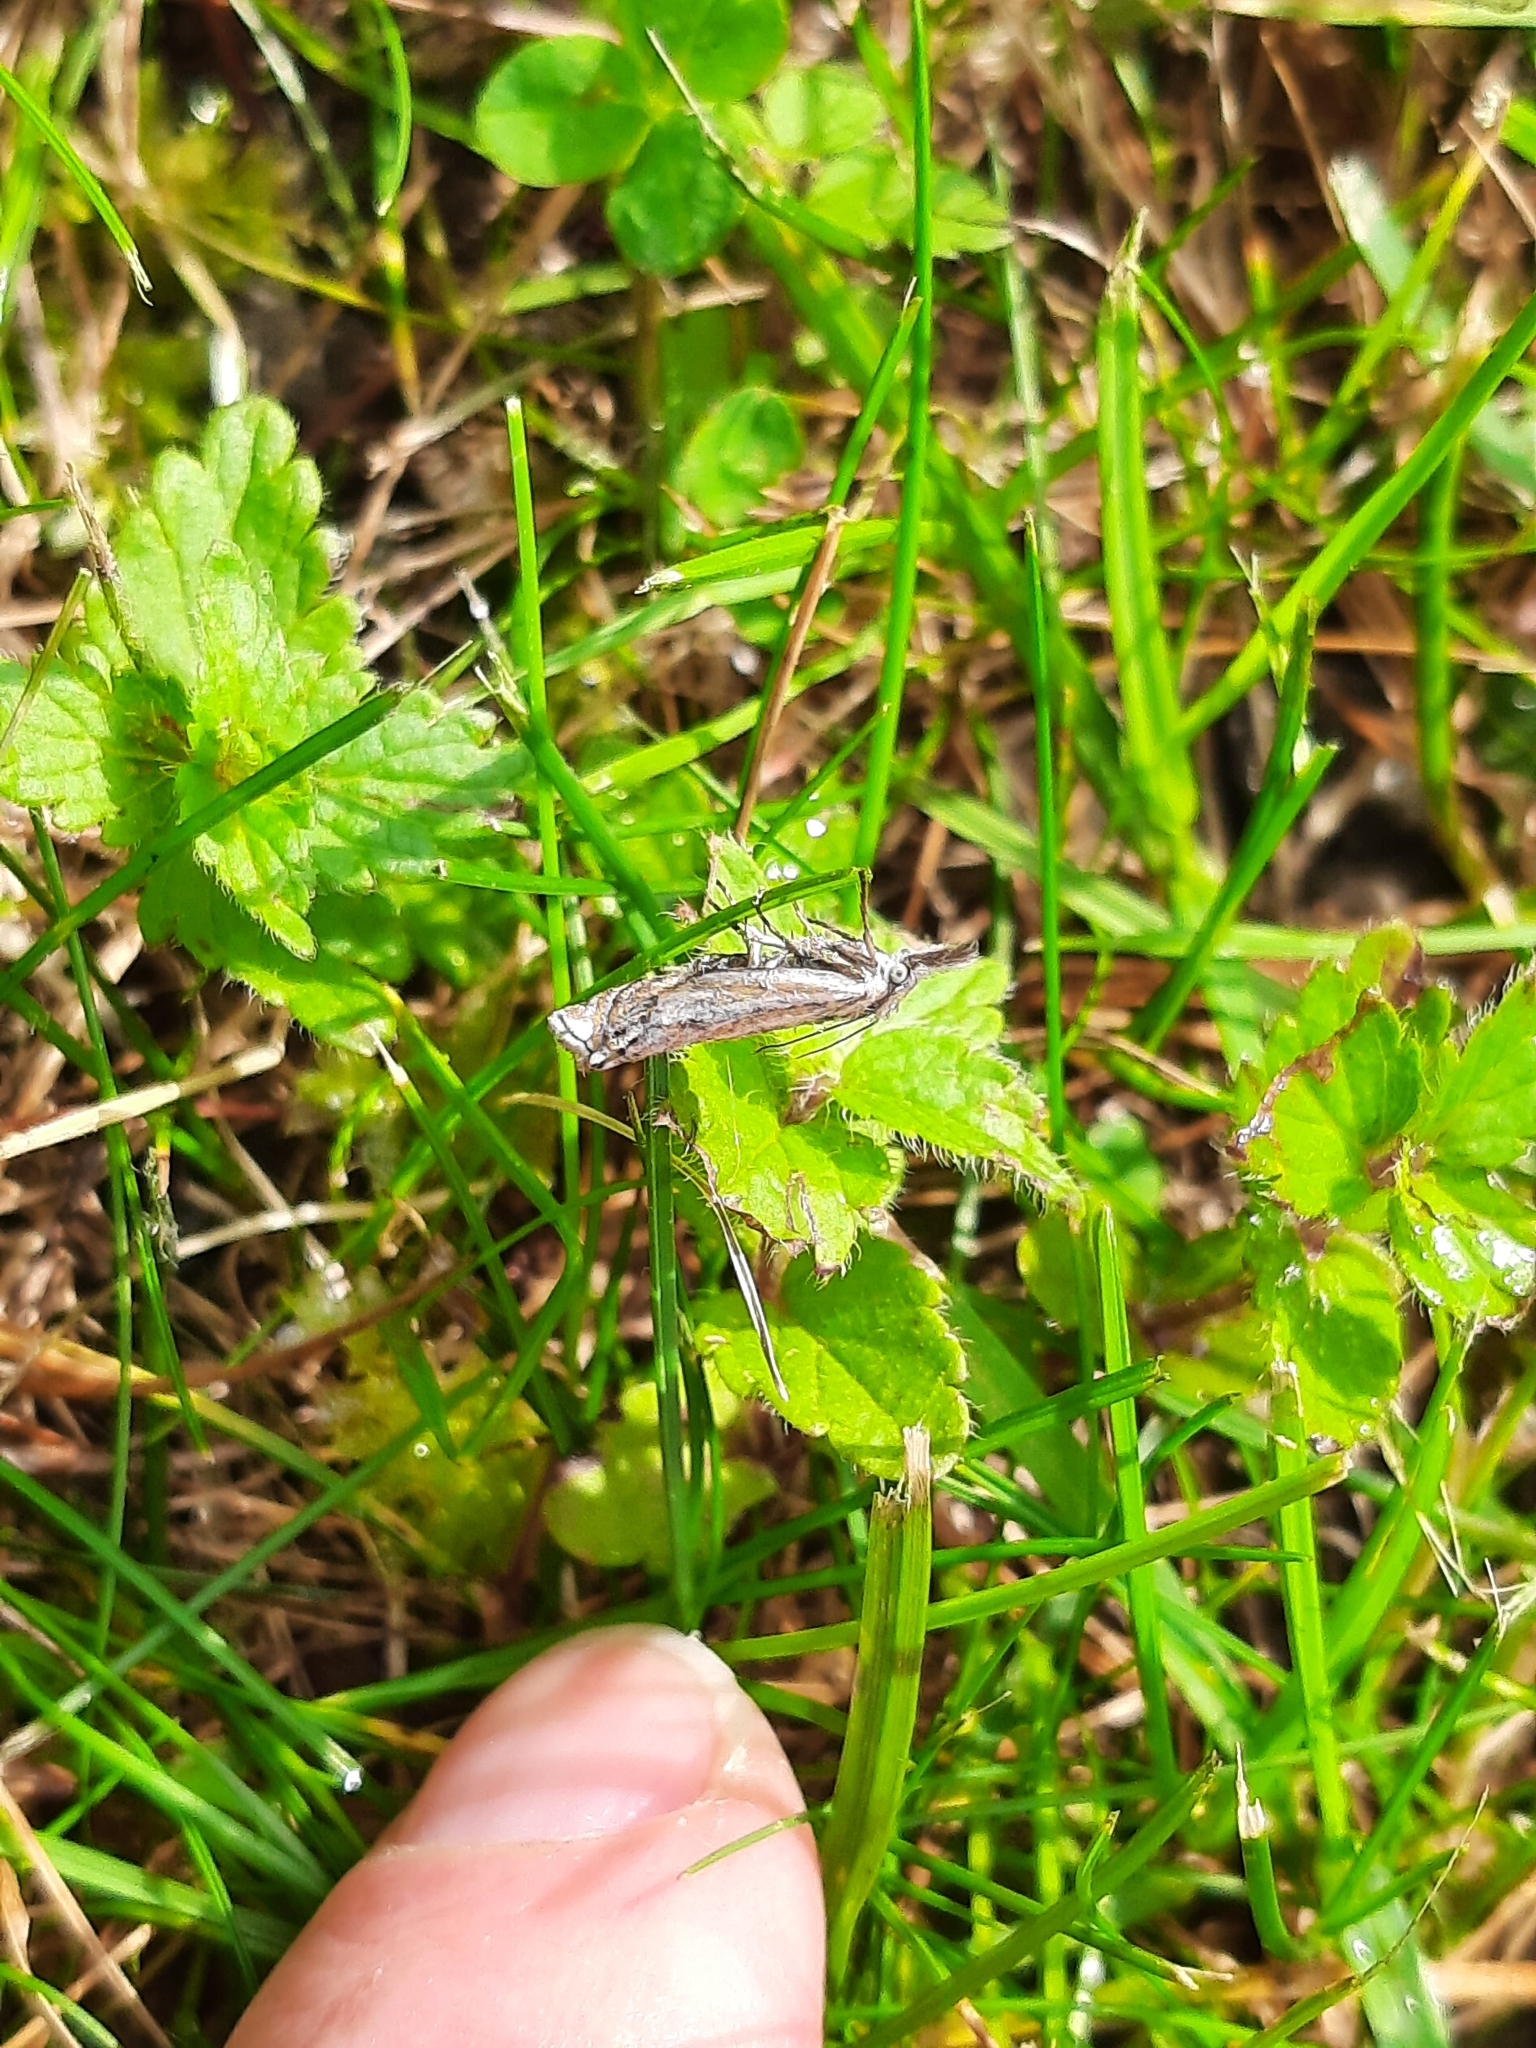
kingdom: Animalia
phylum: Arthropoda
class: Insecta
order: Lepidoptera
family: Crambidae
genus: Crambus
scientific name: Crambus nemorella
